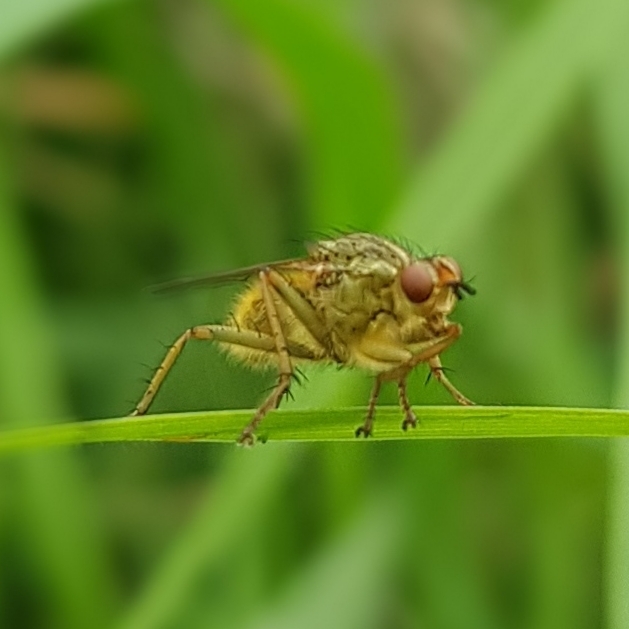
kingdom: Animalia
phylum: Arthropoda
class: Insecta
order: Diptera
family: Scathophagidae
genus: Scathophaga
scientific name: Scathophaga stercoraria
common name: Yellow dung fly
